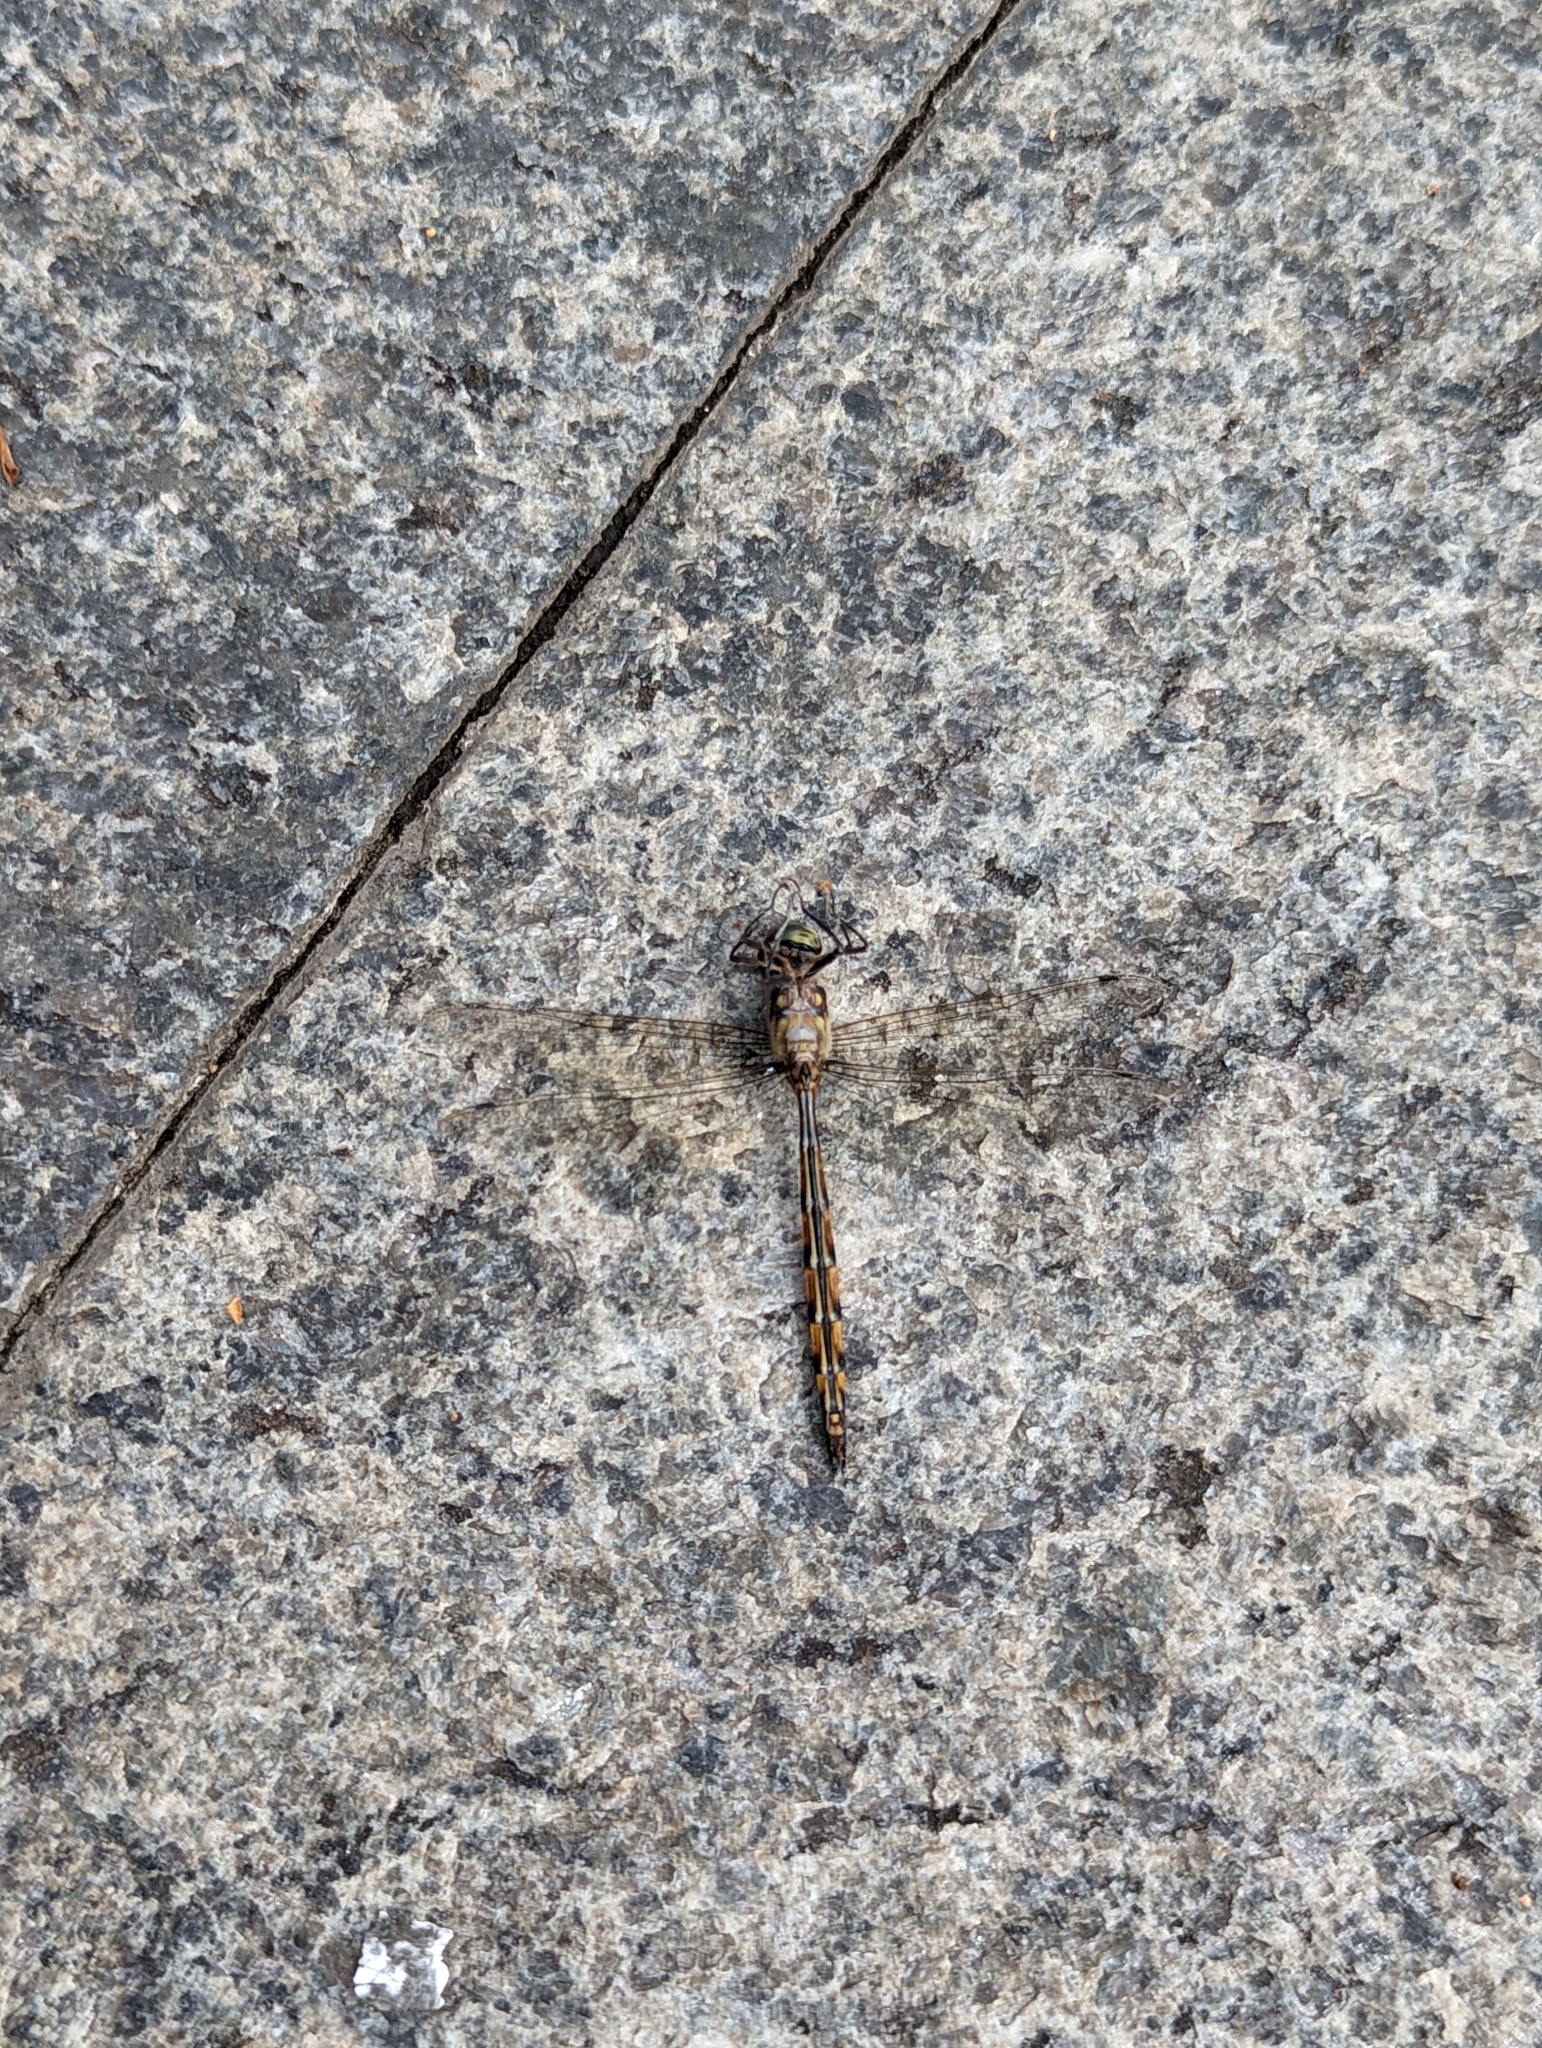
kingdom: Animalia
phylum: Arthropoda
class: Insecta
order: Odonata
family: Corduliidae
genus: Hemicordulia
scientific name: Hemicordulia australiae
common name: Sentry dragonfly
